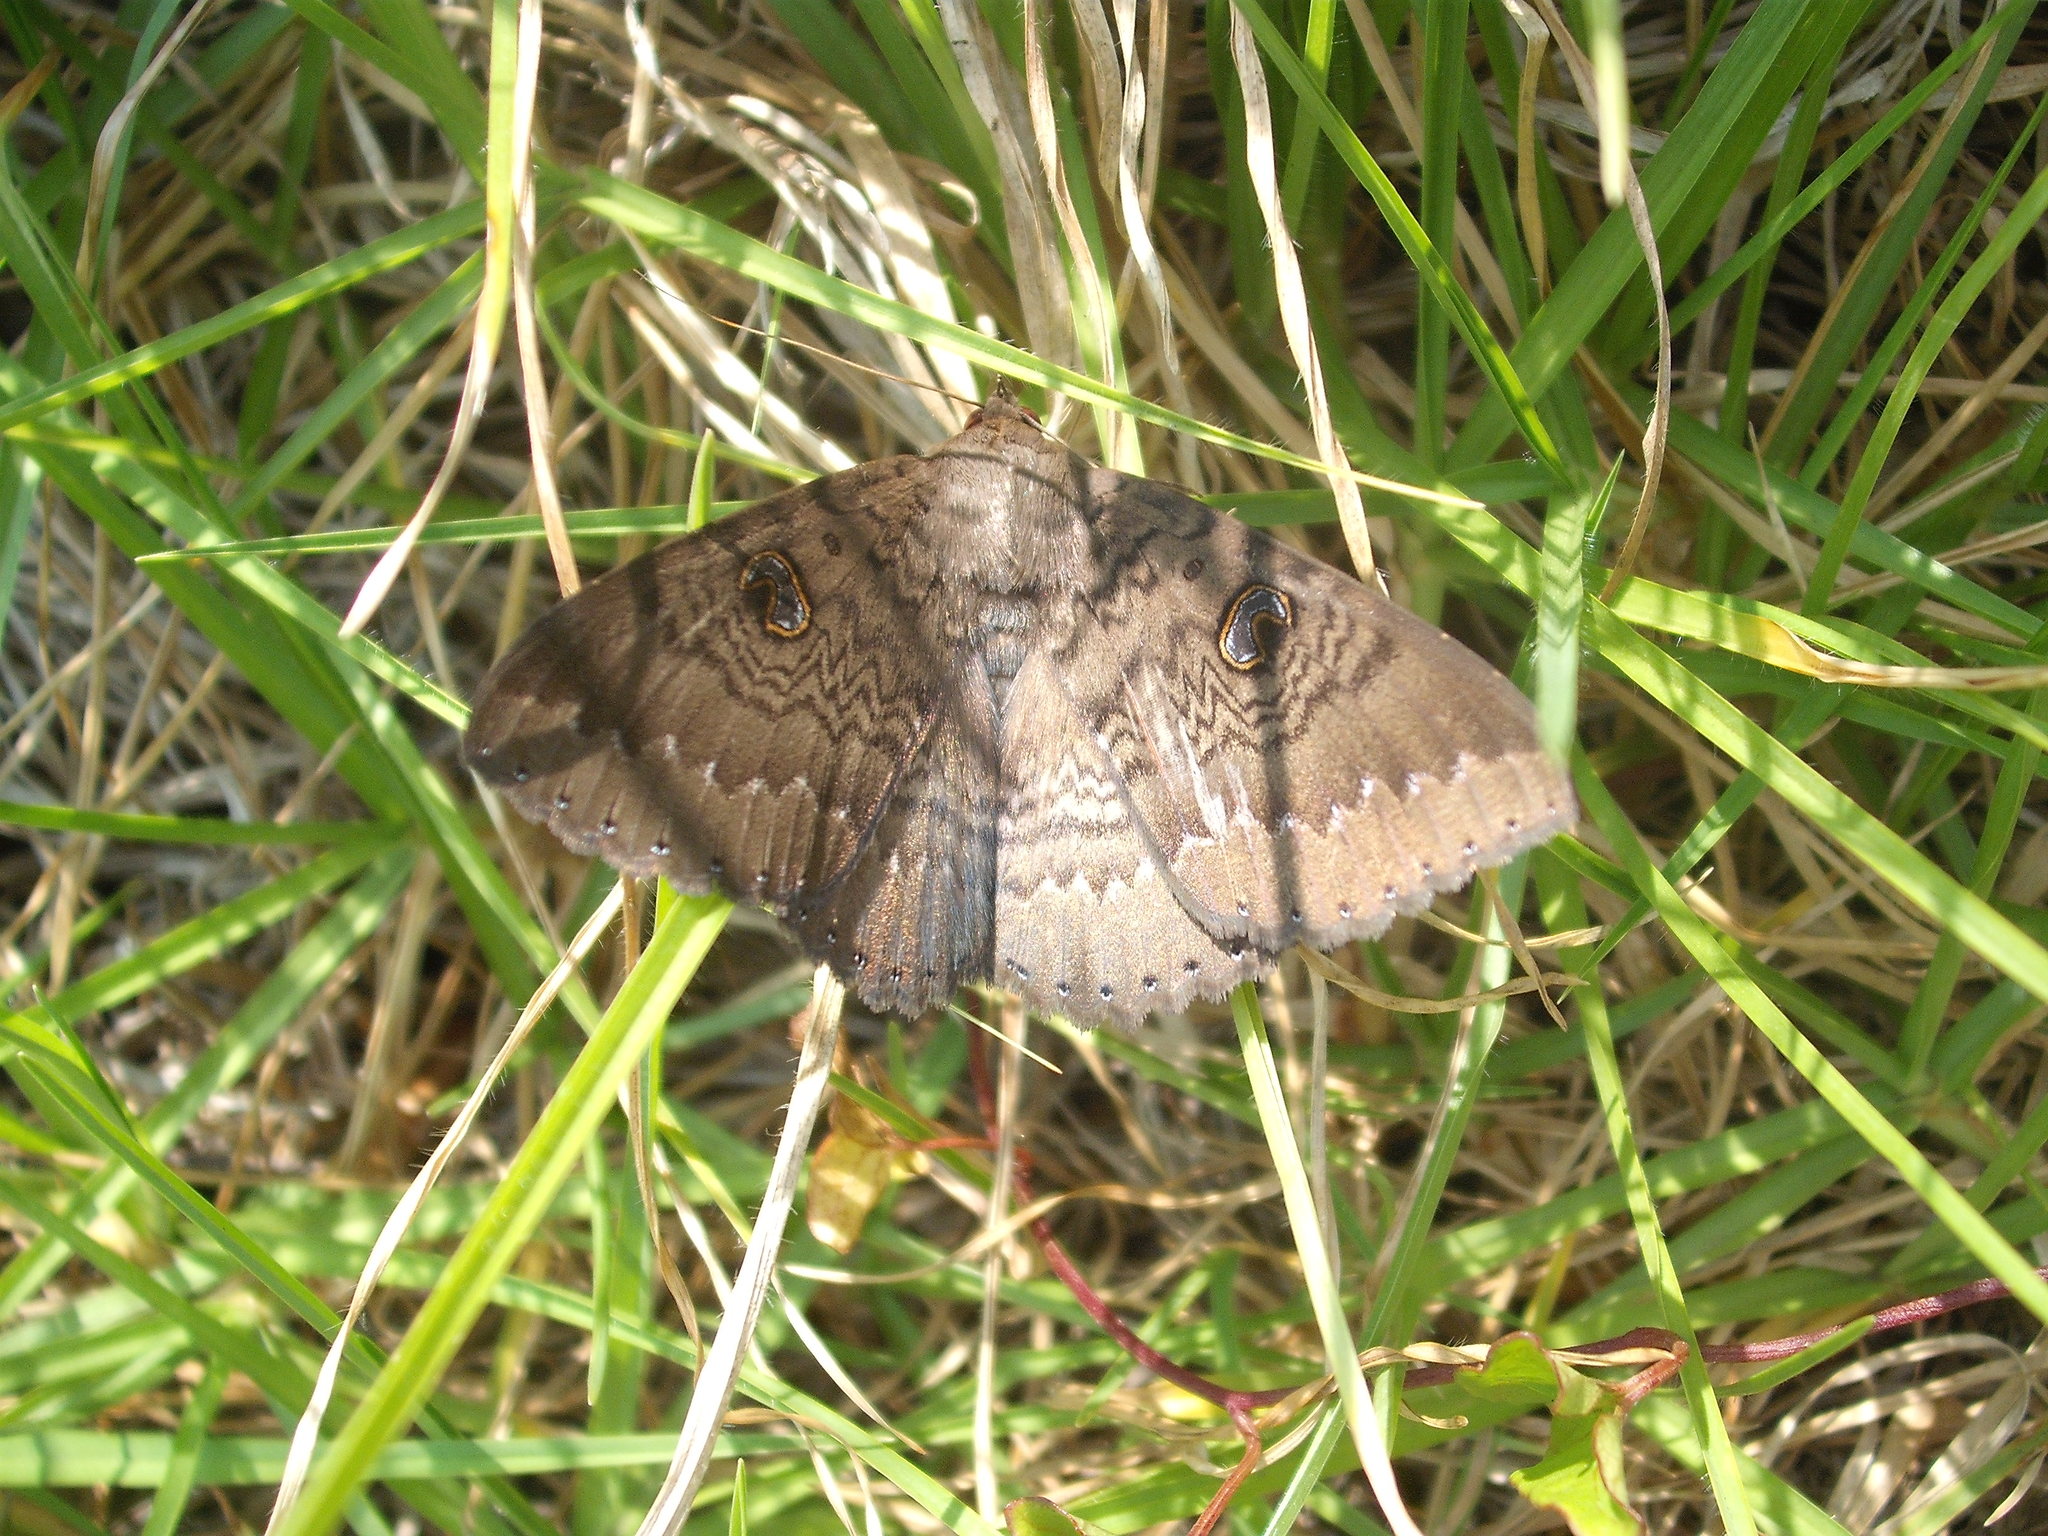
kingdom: Animalia
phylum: Arthropoda
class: Insecta
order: Lepidoptera
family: Erebidae
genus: Dasypodia
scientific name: Dasypodia cymatodes
